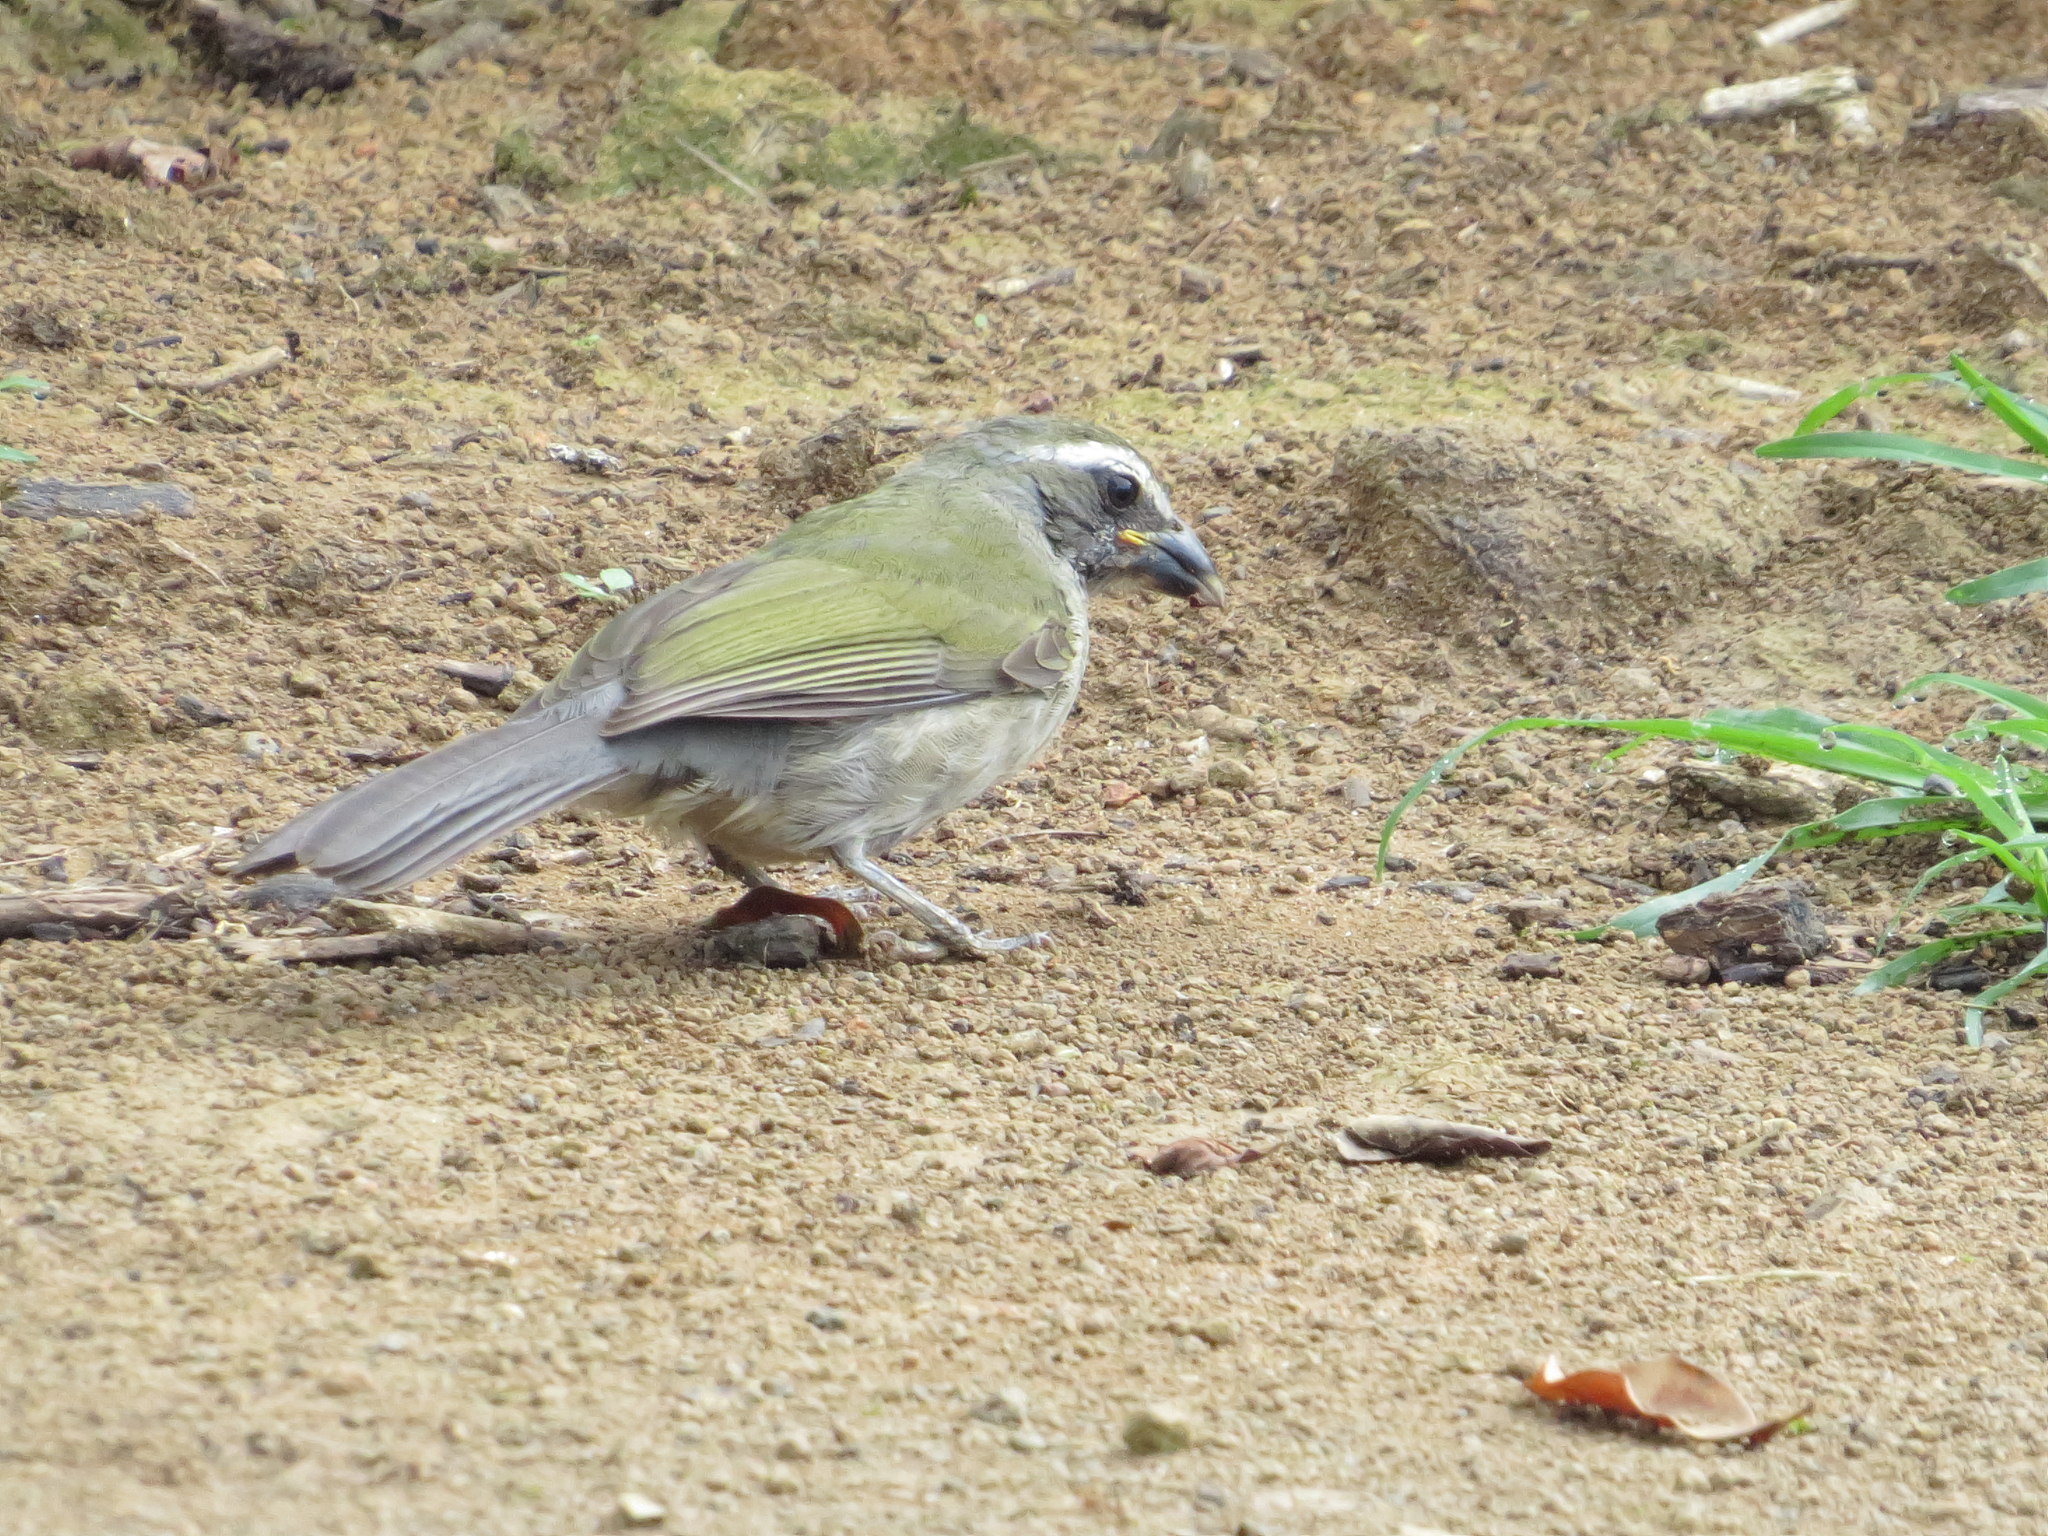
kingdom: Animalia
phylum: Chordata
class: Aves
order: Passeriformes
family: Thraupidae
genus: Saltator
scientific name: Saltator similis
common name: Green-winged saltator
